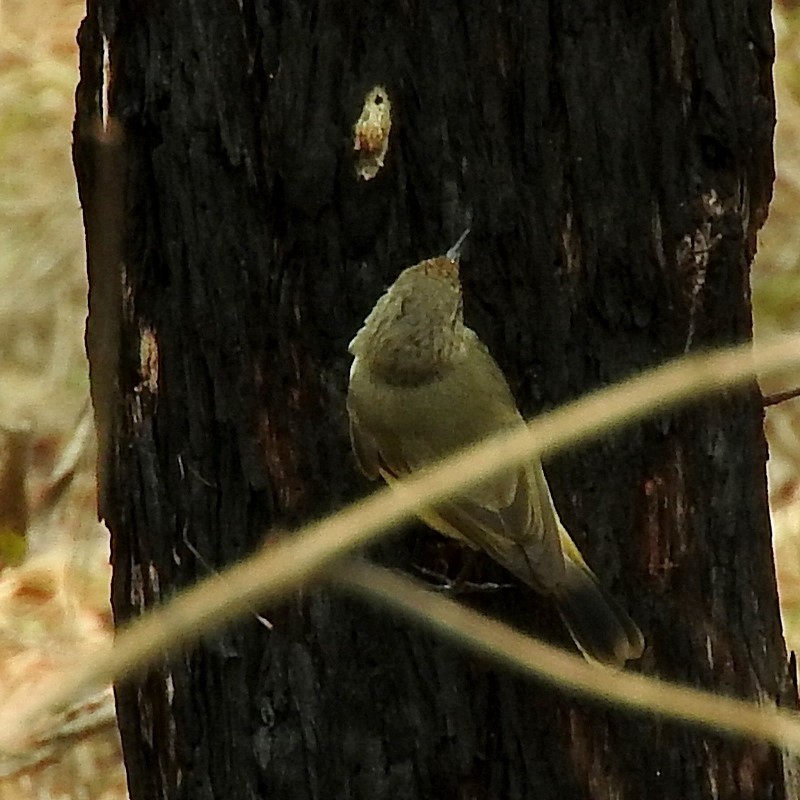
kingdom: Animalia
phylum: Chordata
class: Aves
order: Passeriformes
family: Acanthizidae
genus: Acanthiza
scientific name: Acanthiza reguloides
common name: Buff-rumped thornbill
